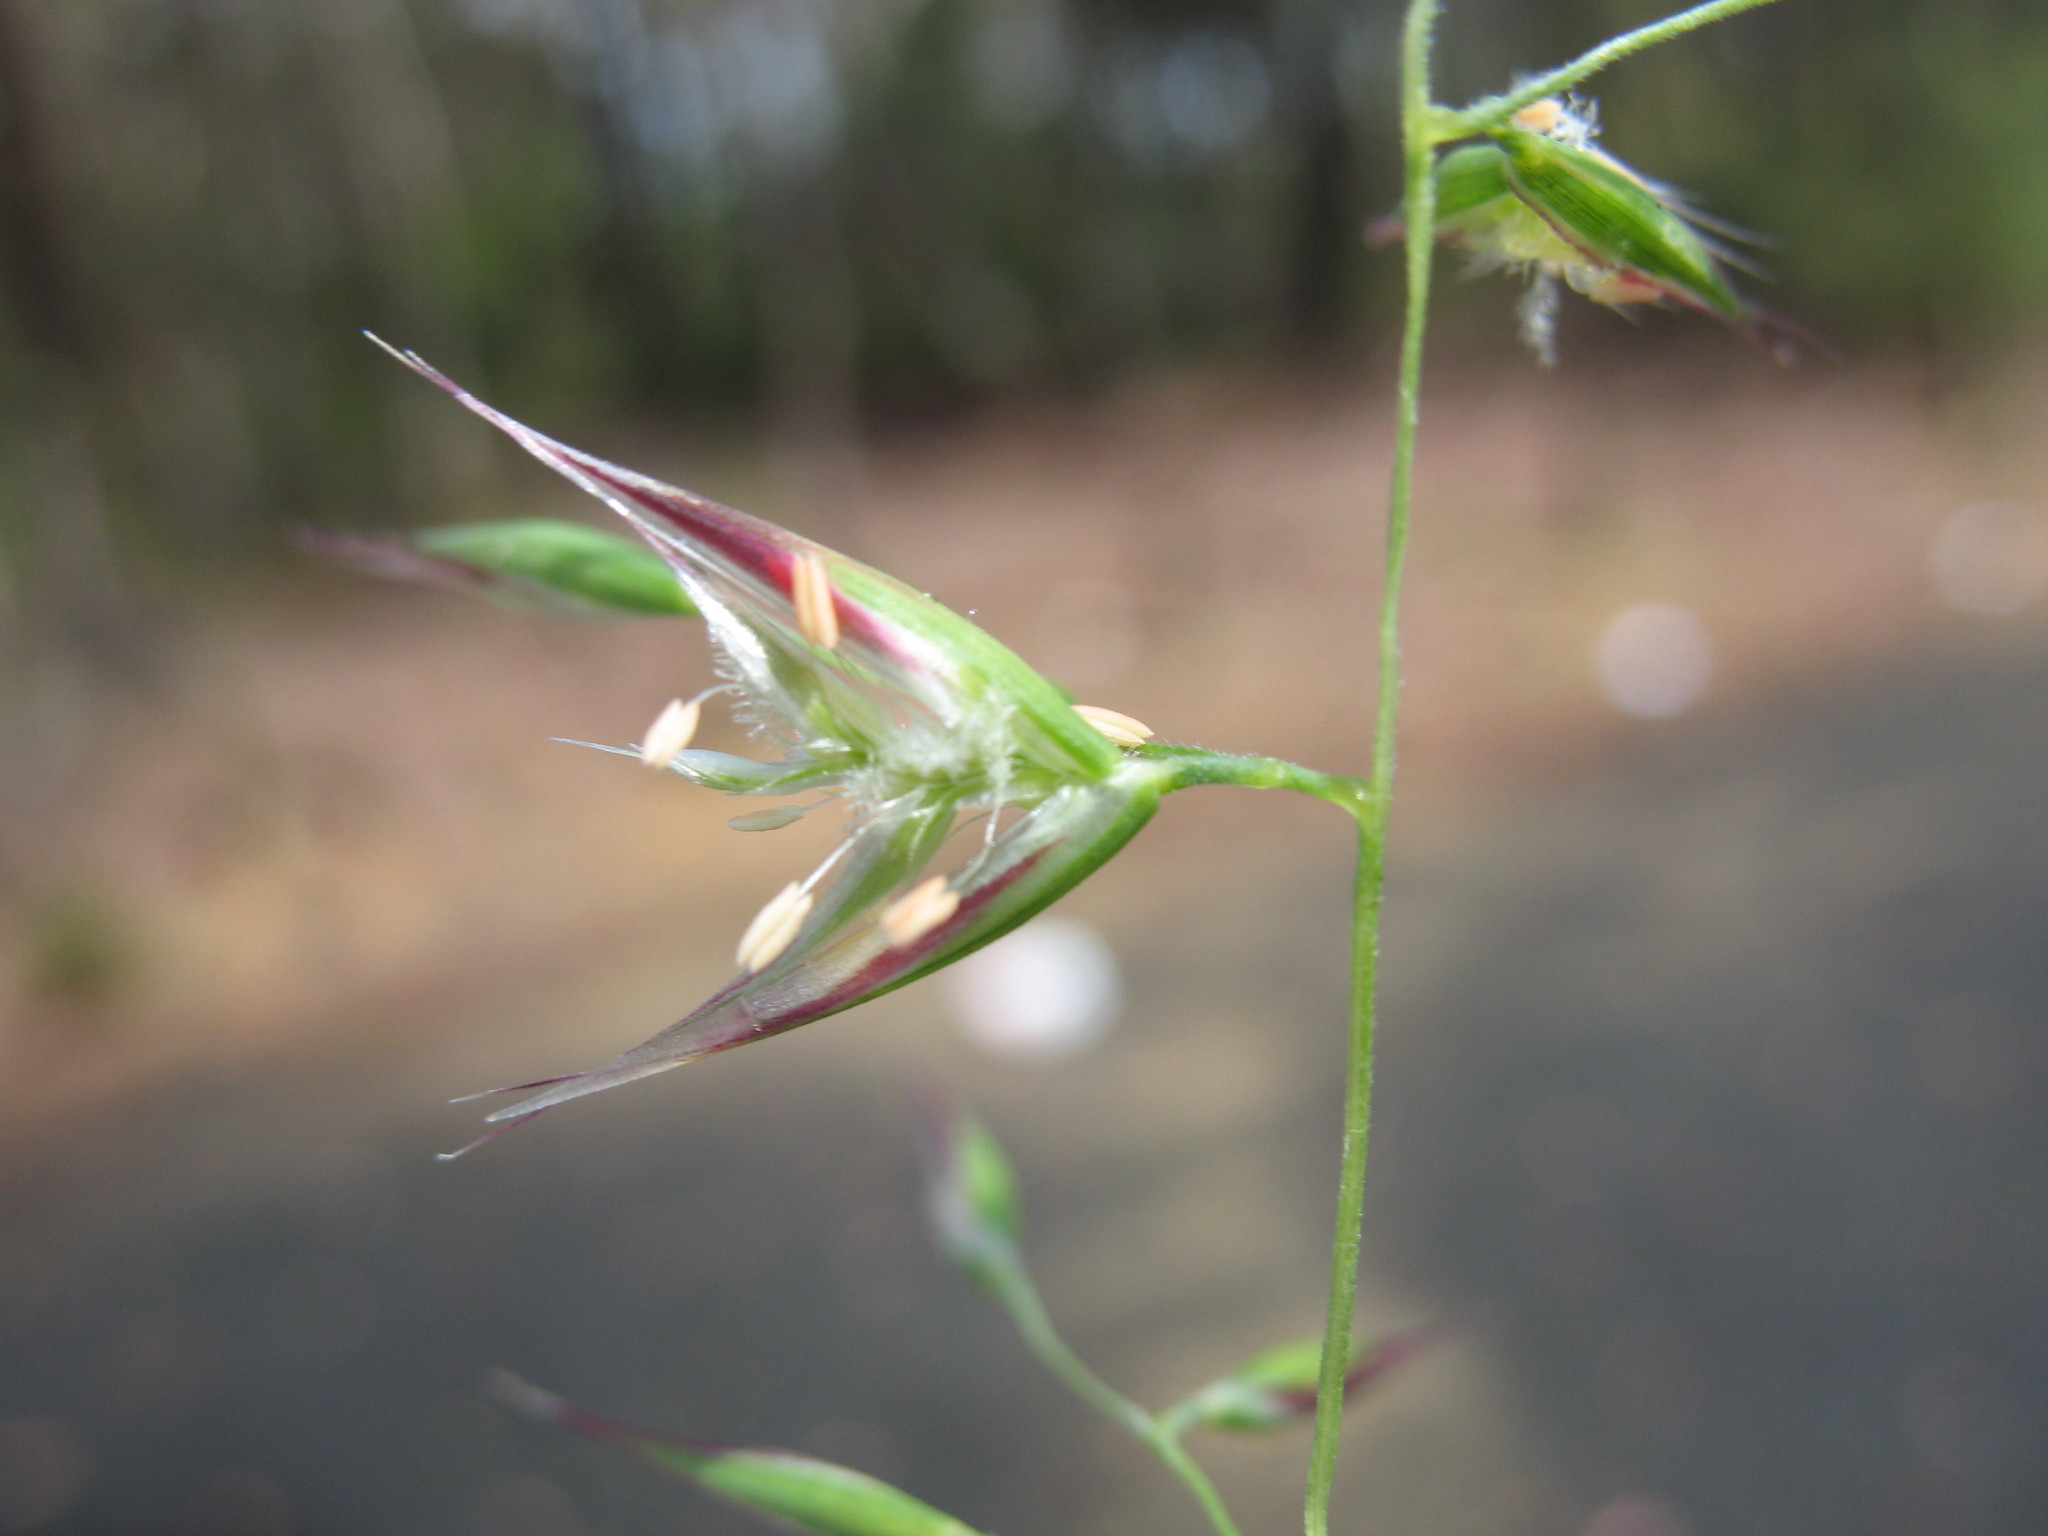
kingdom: Plantae
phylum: Tracheophyta
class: Liliopsida
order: Poales
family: Poaceae
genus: Rytidosperma
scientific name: Rytidosperma tenuius
